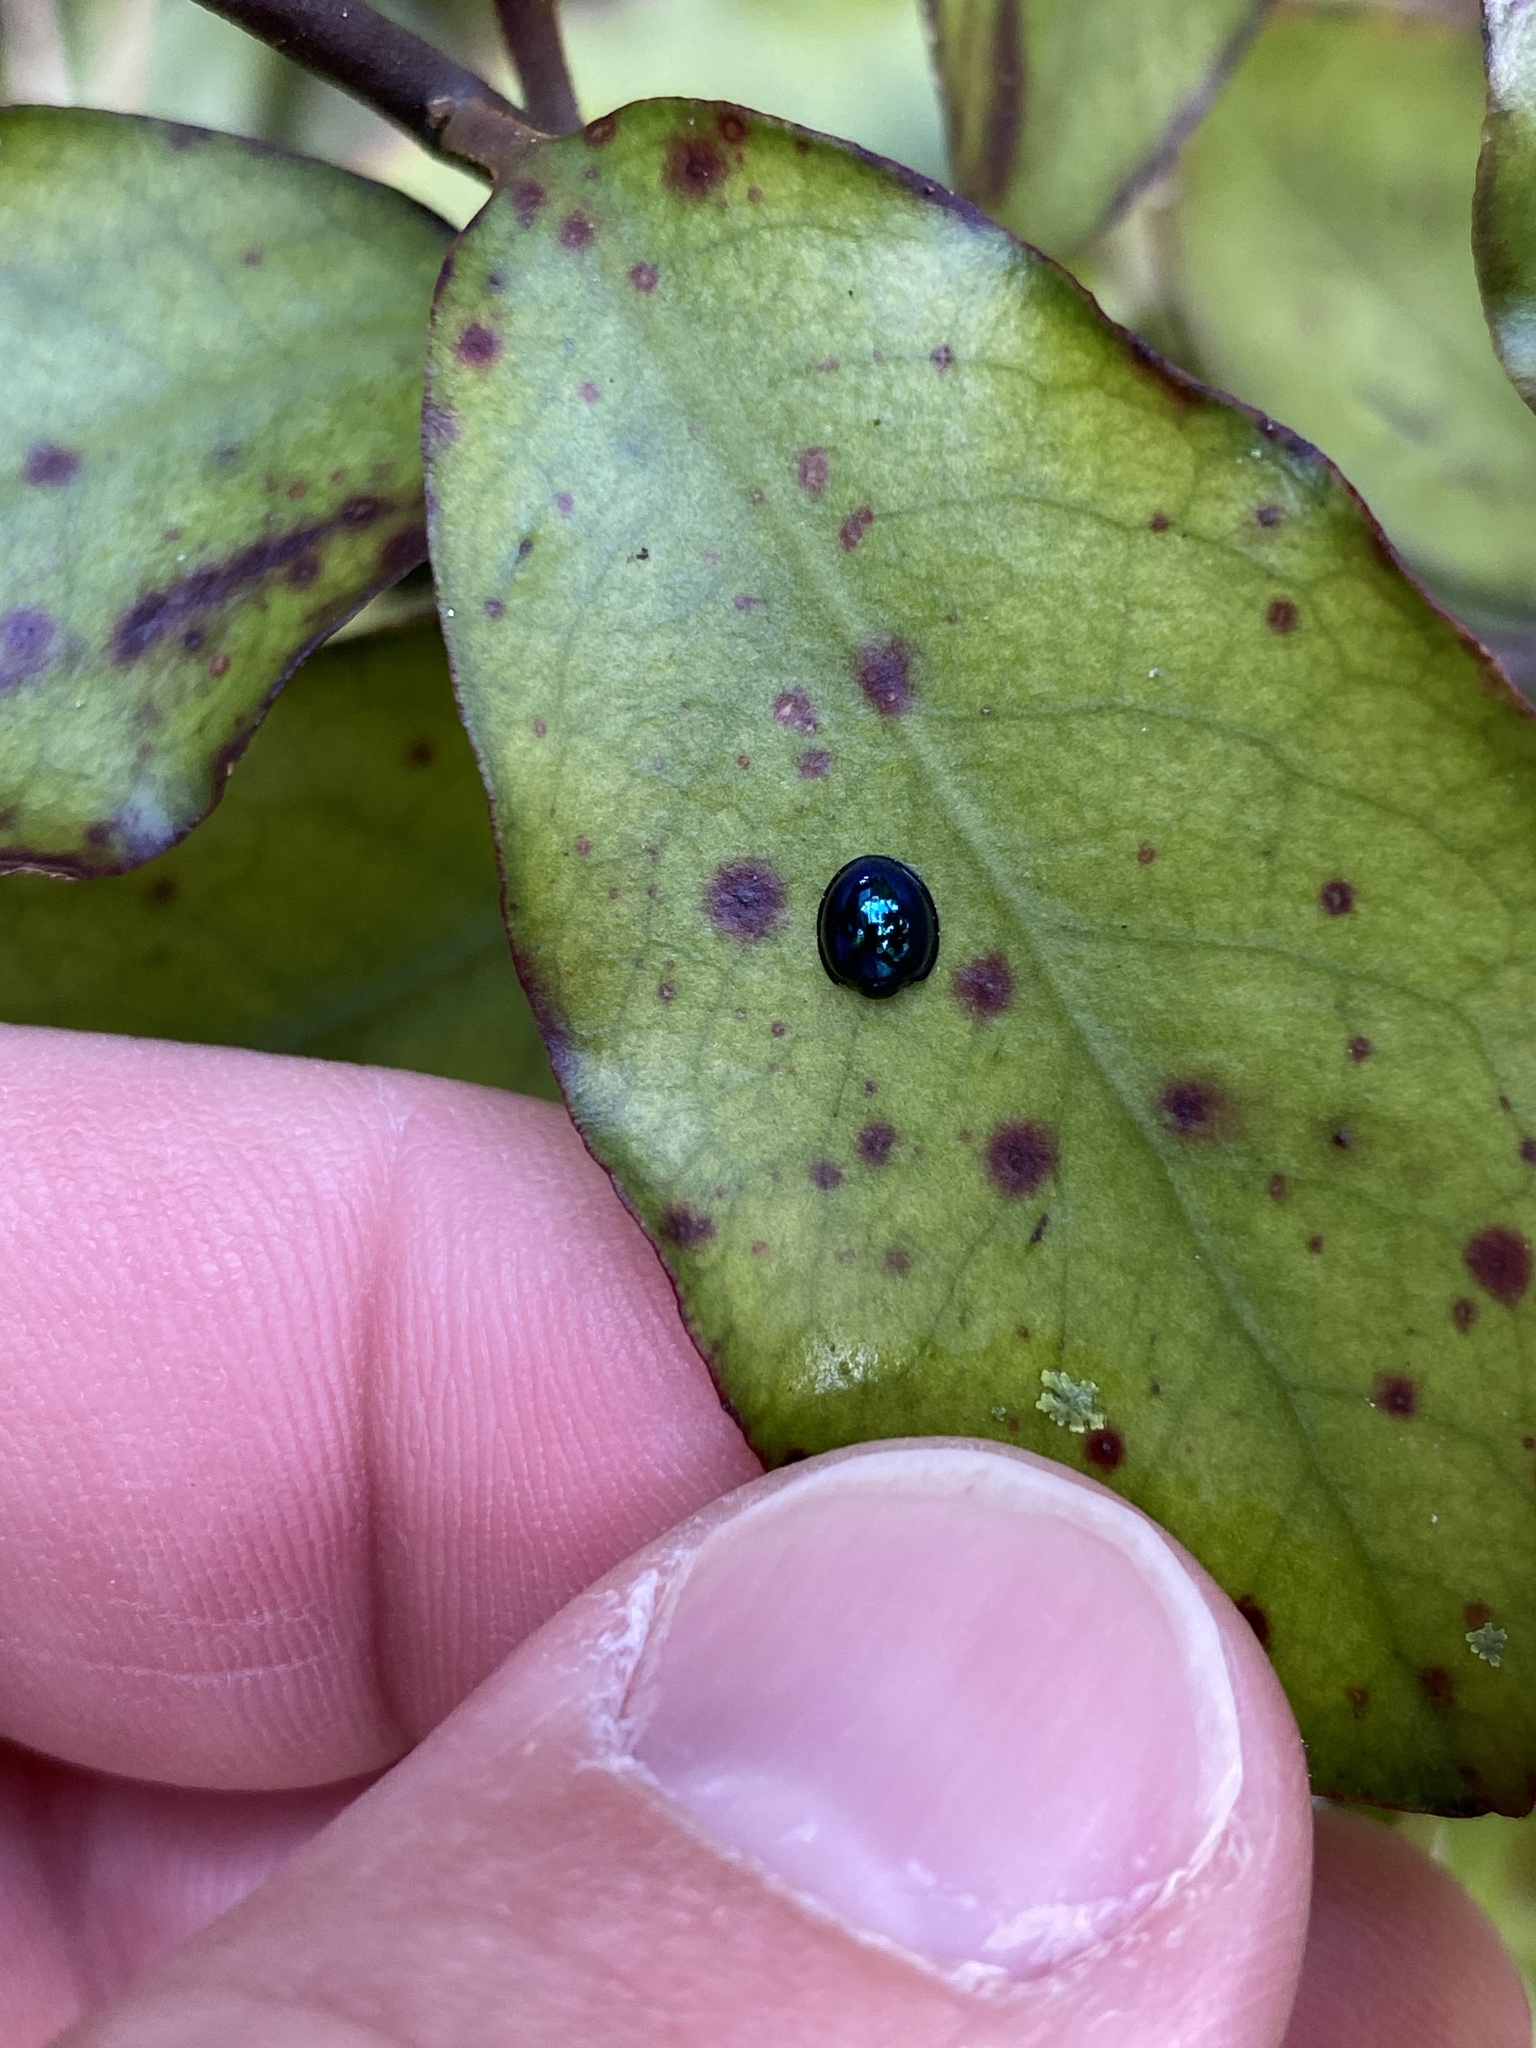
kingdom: Animalia
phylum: Arthropoda
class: Insecta
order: Coleoptera
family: Coccinellidae
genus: Halmus
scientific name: Halmus chalybeus
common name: Steel blue ladybird beetle
